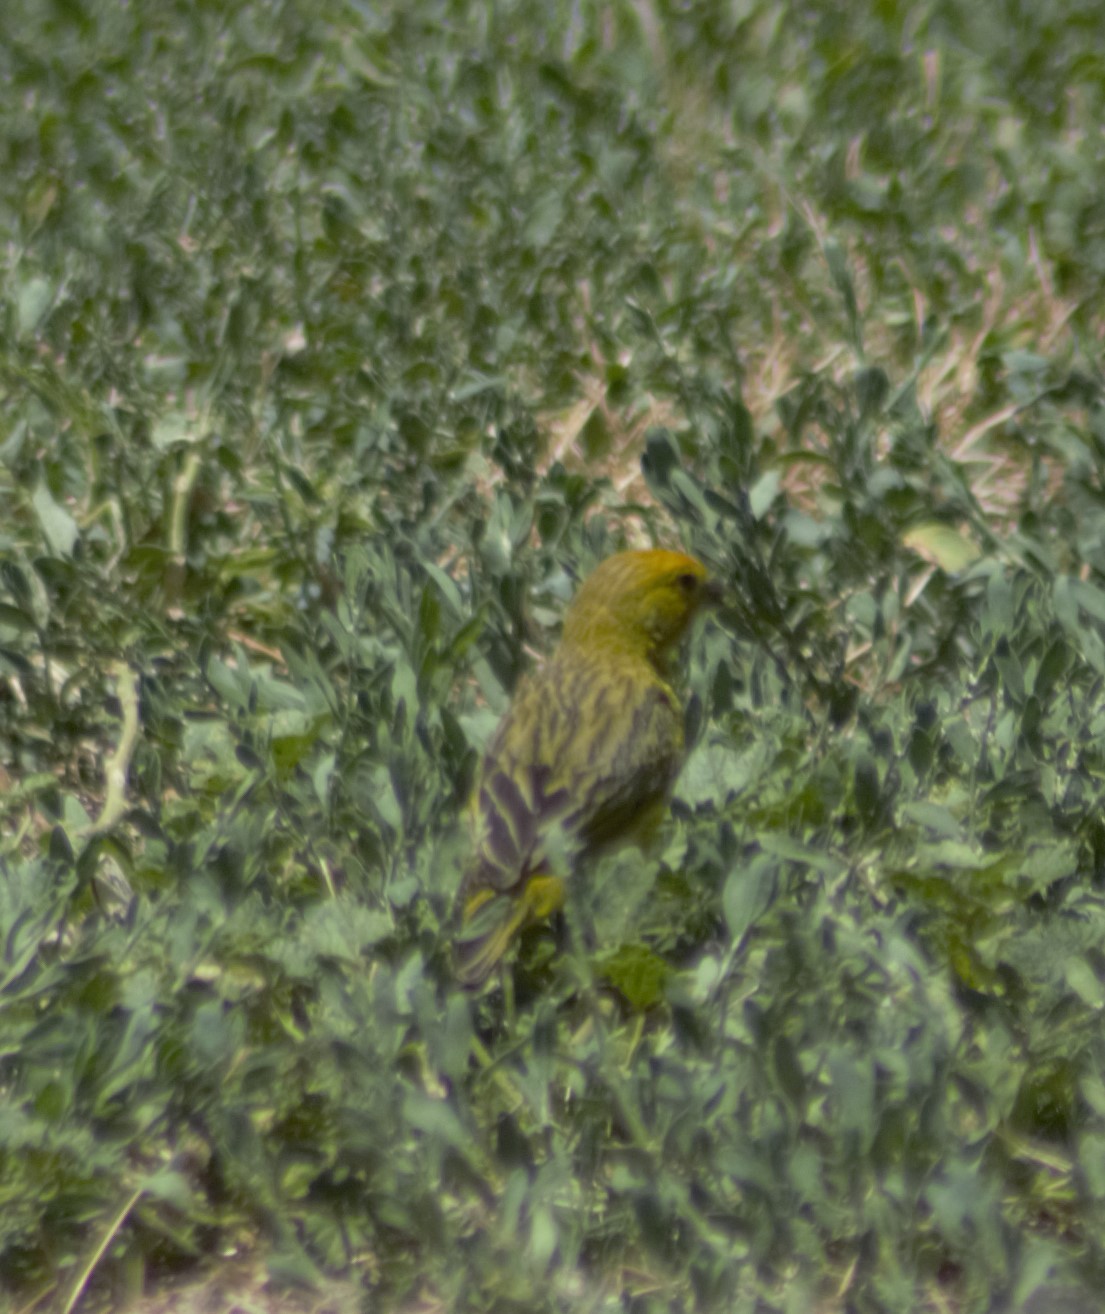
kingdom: Animalia
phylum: Chordata
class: Aves
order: Passeriformes
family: Thraupidae
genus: Sicalis
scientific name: Sicalis flaveola
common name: Saffron finch
